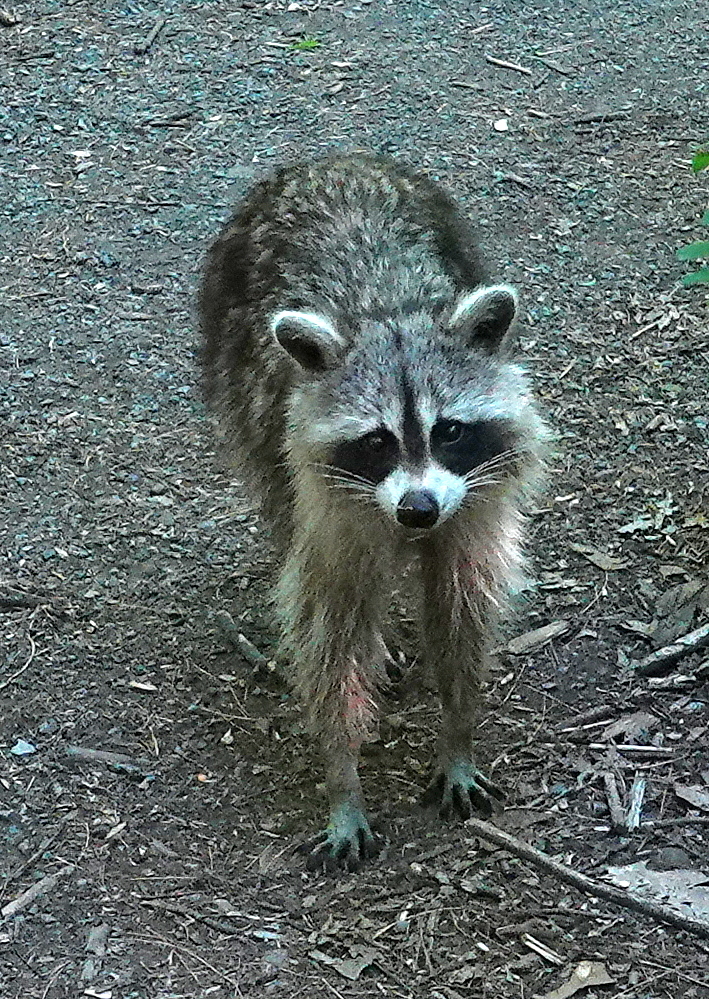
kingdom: Animalia
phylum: Chordata
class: Mammalia
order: Carnivora
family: Procyonidae
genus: Procyon
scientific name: Procyon lotor
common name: Raccoon
